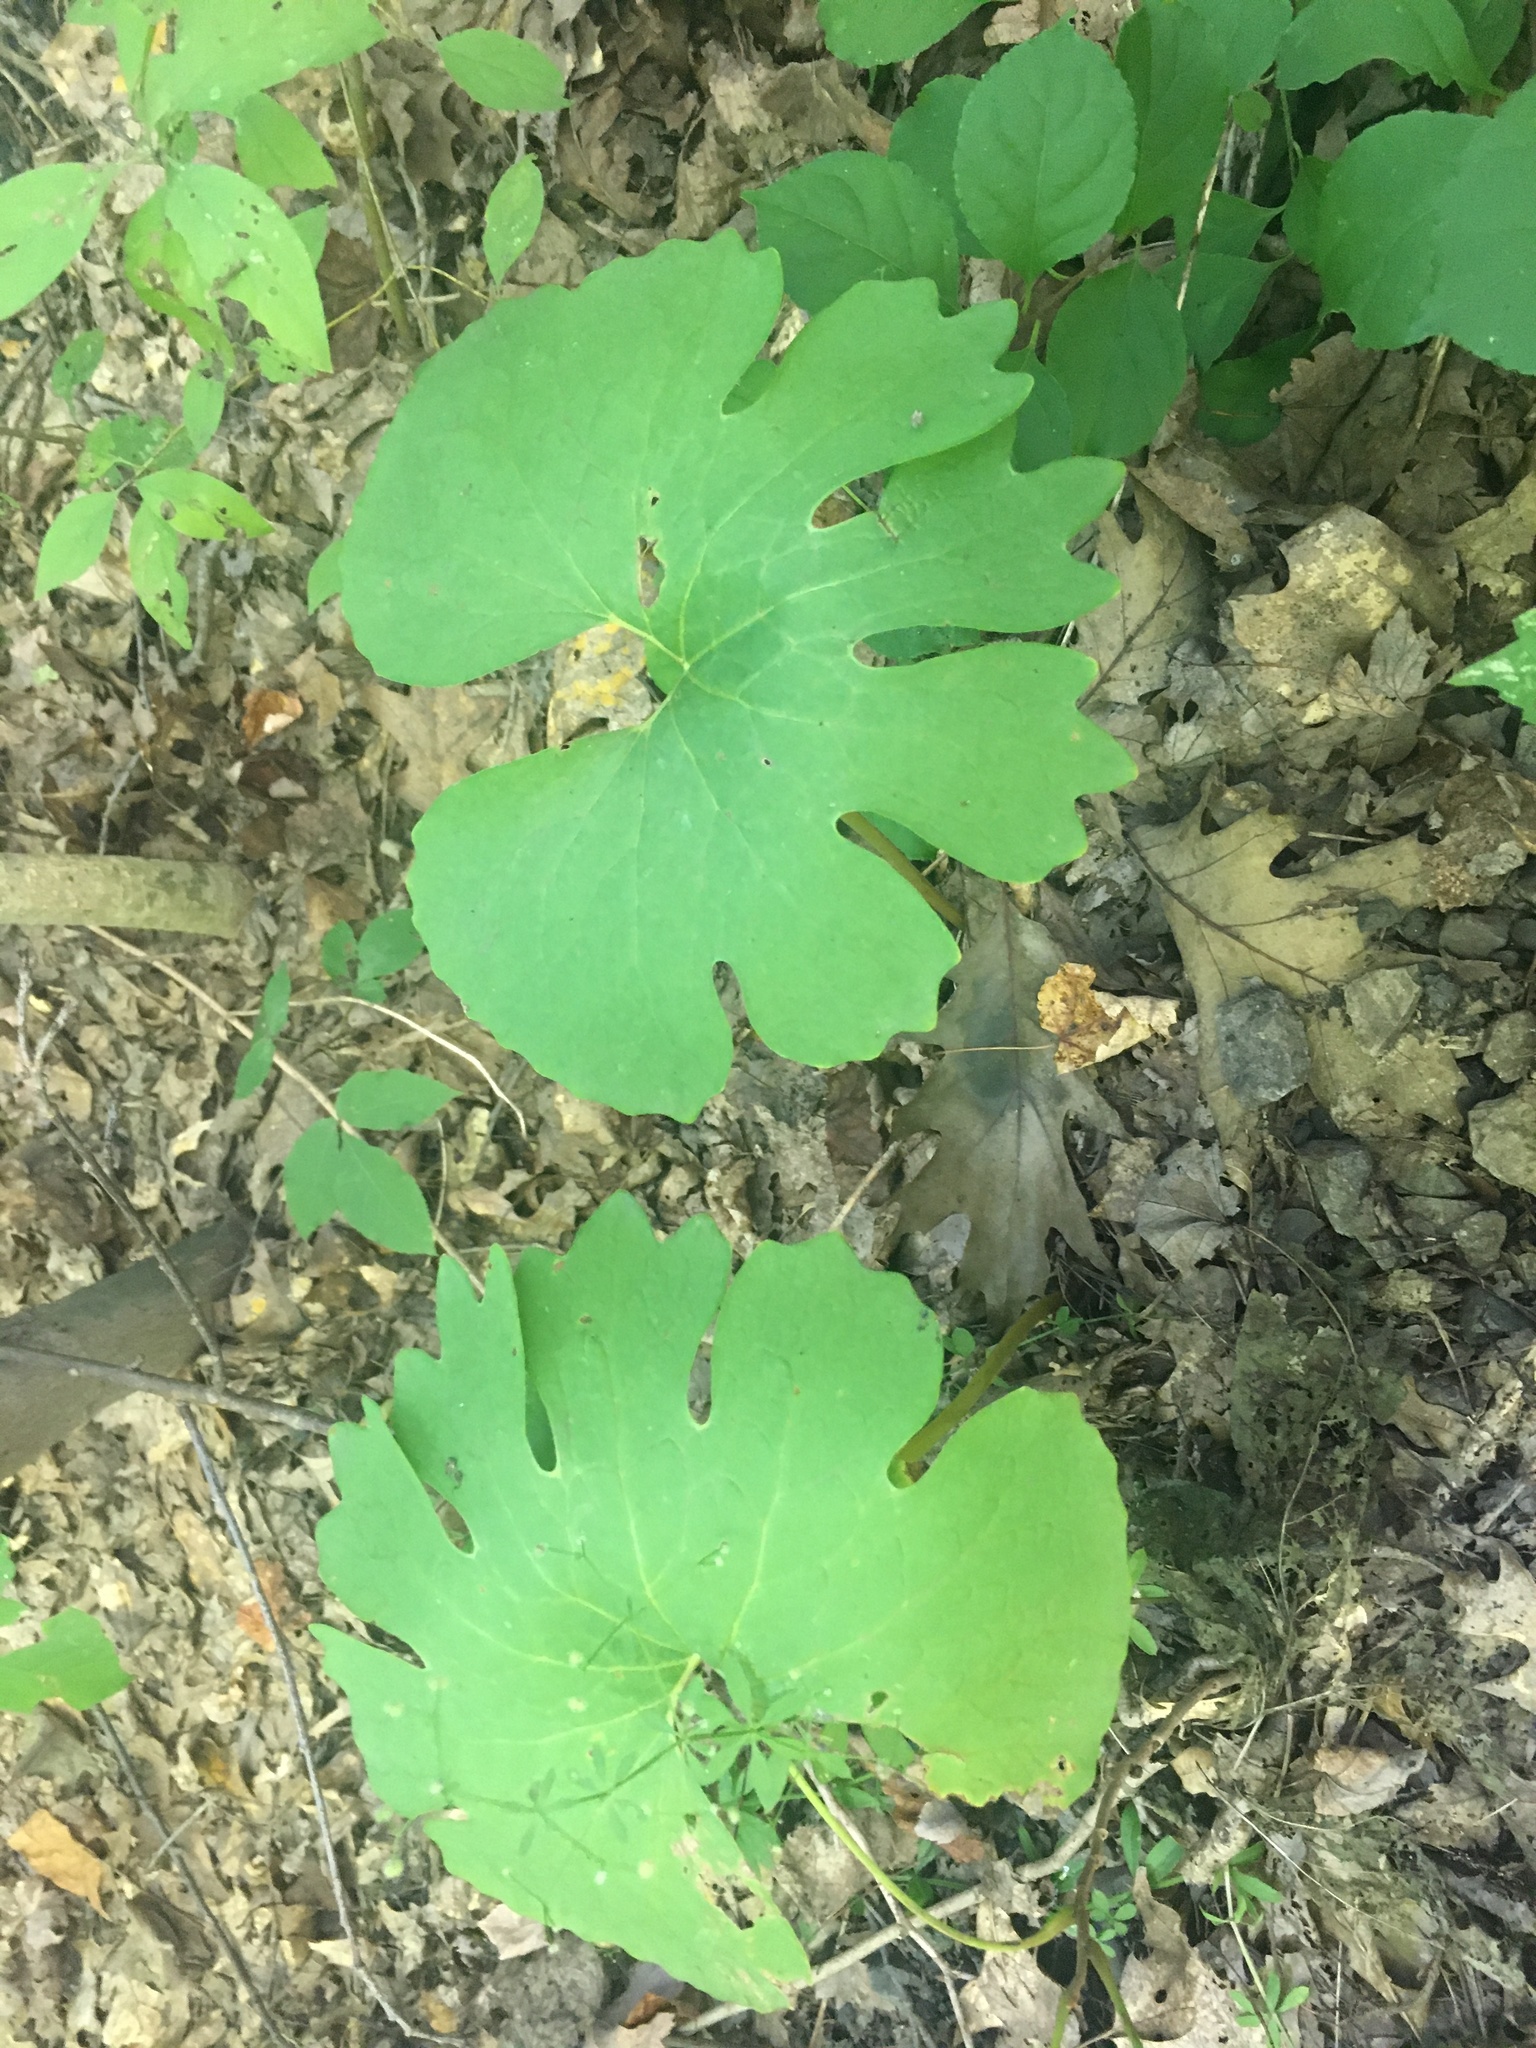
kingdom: Plantae
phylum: Tracheophyta
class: Magnoliopsida
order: Ranunculales
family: Papaveraceae
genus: Sanguinaria
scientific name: Sanguinaria canadensis
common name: Bloodroot
